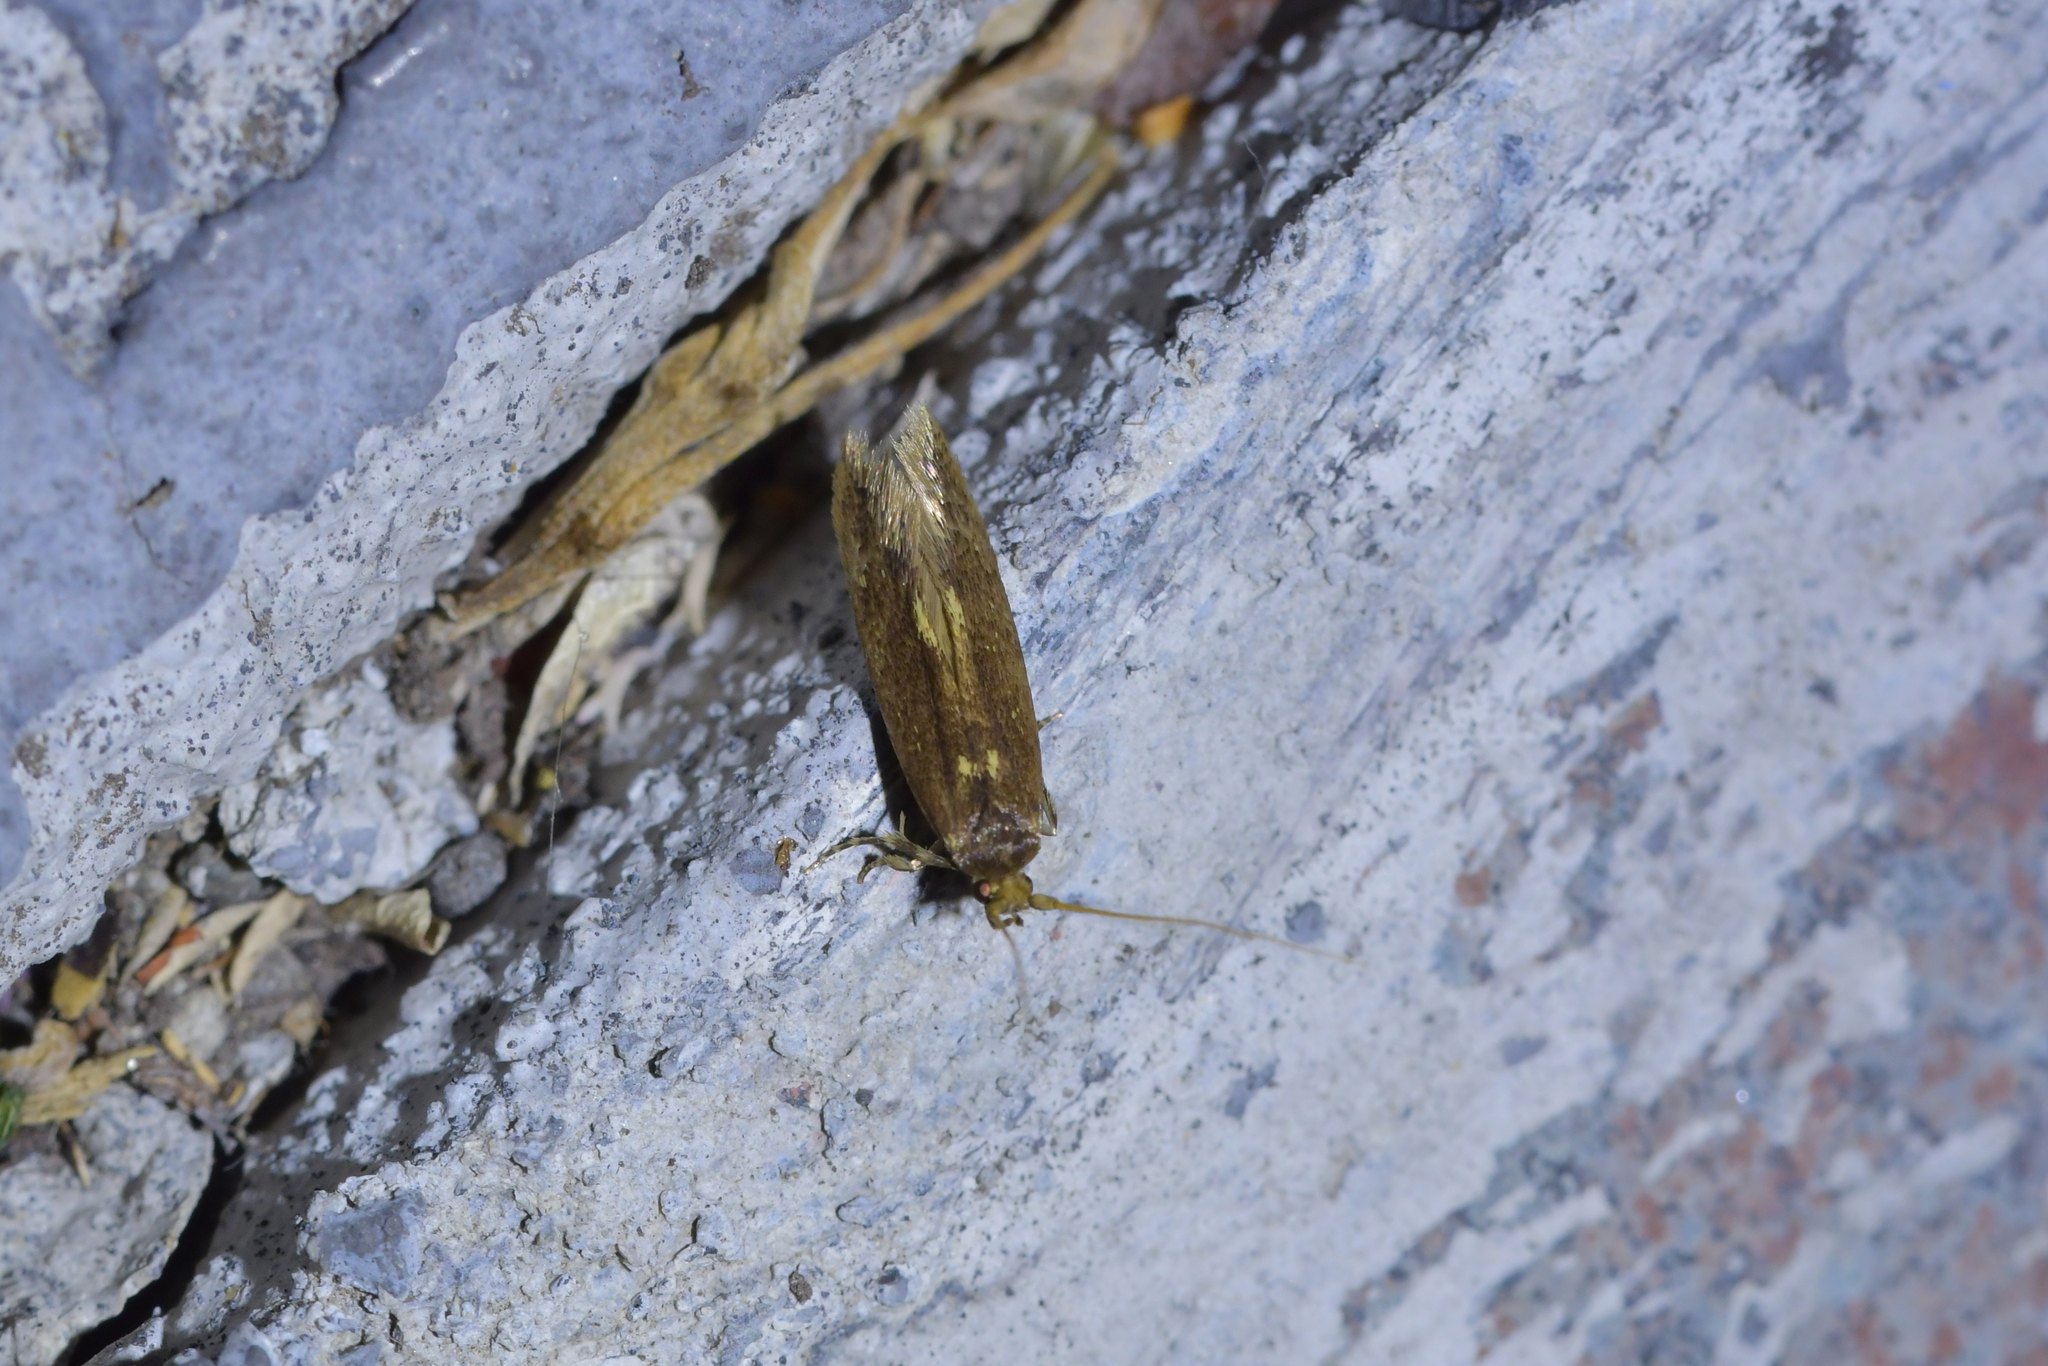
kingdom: Animalia
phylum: Arthropoda
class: Insecta
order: Lepidoptera
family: Tineidae
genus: Opogona
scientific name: Opogona omoscopa
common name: Moth
